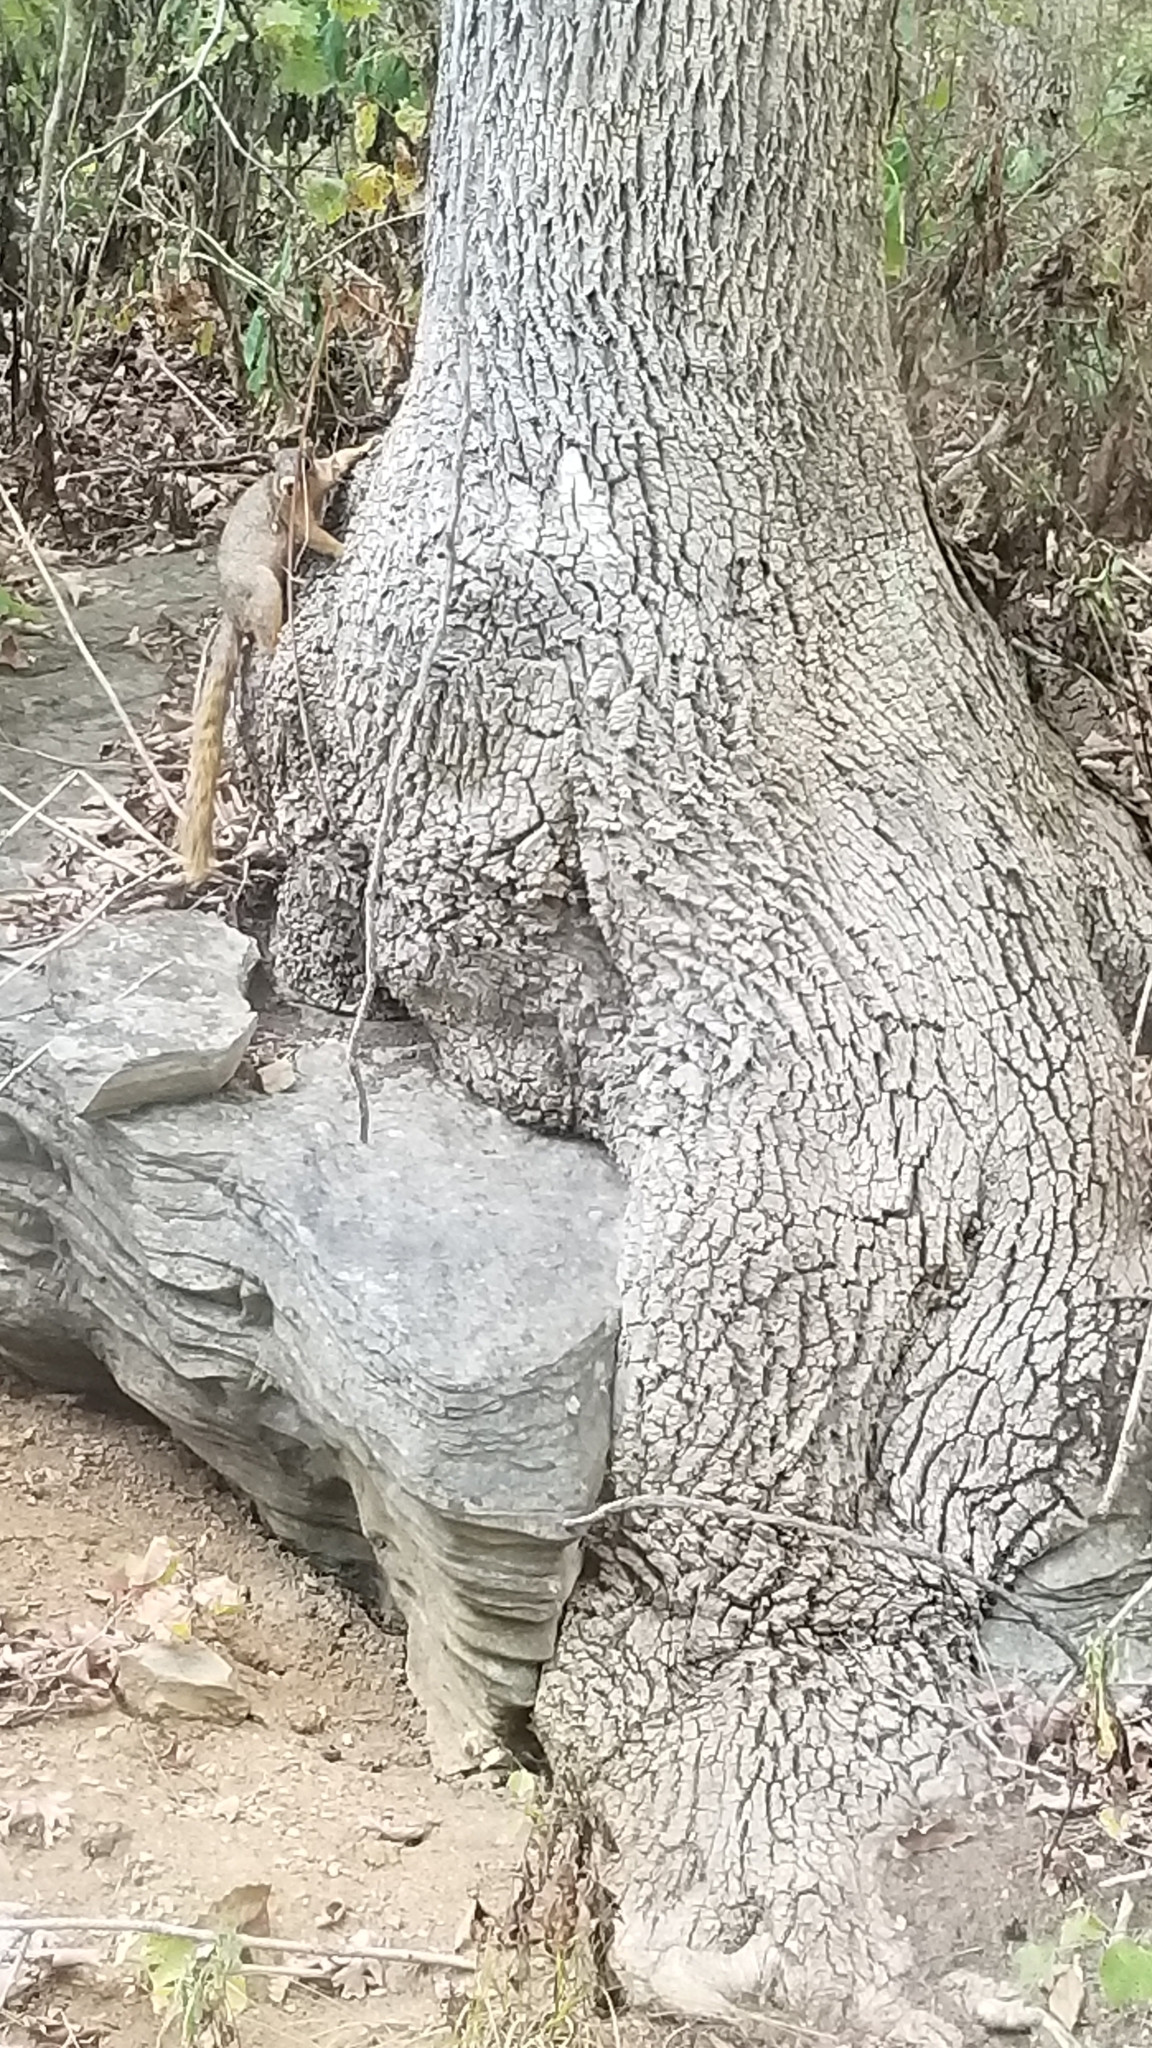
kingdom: Animalia
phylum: Chordata
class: Mammalia
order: Rodentia
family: Sciuridae
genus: Sciurus
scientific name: Sciurus niger
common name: Fox squirrel
